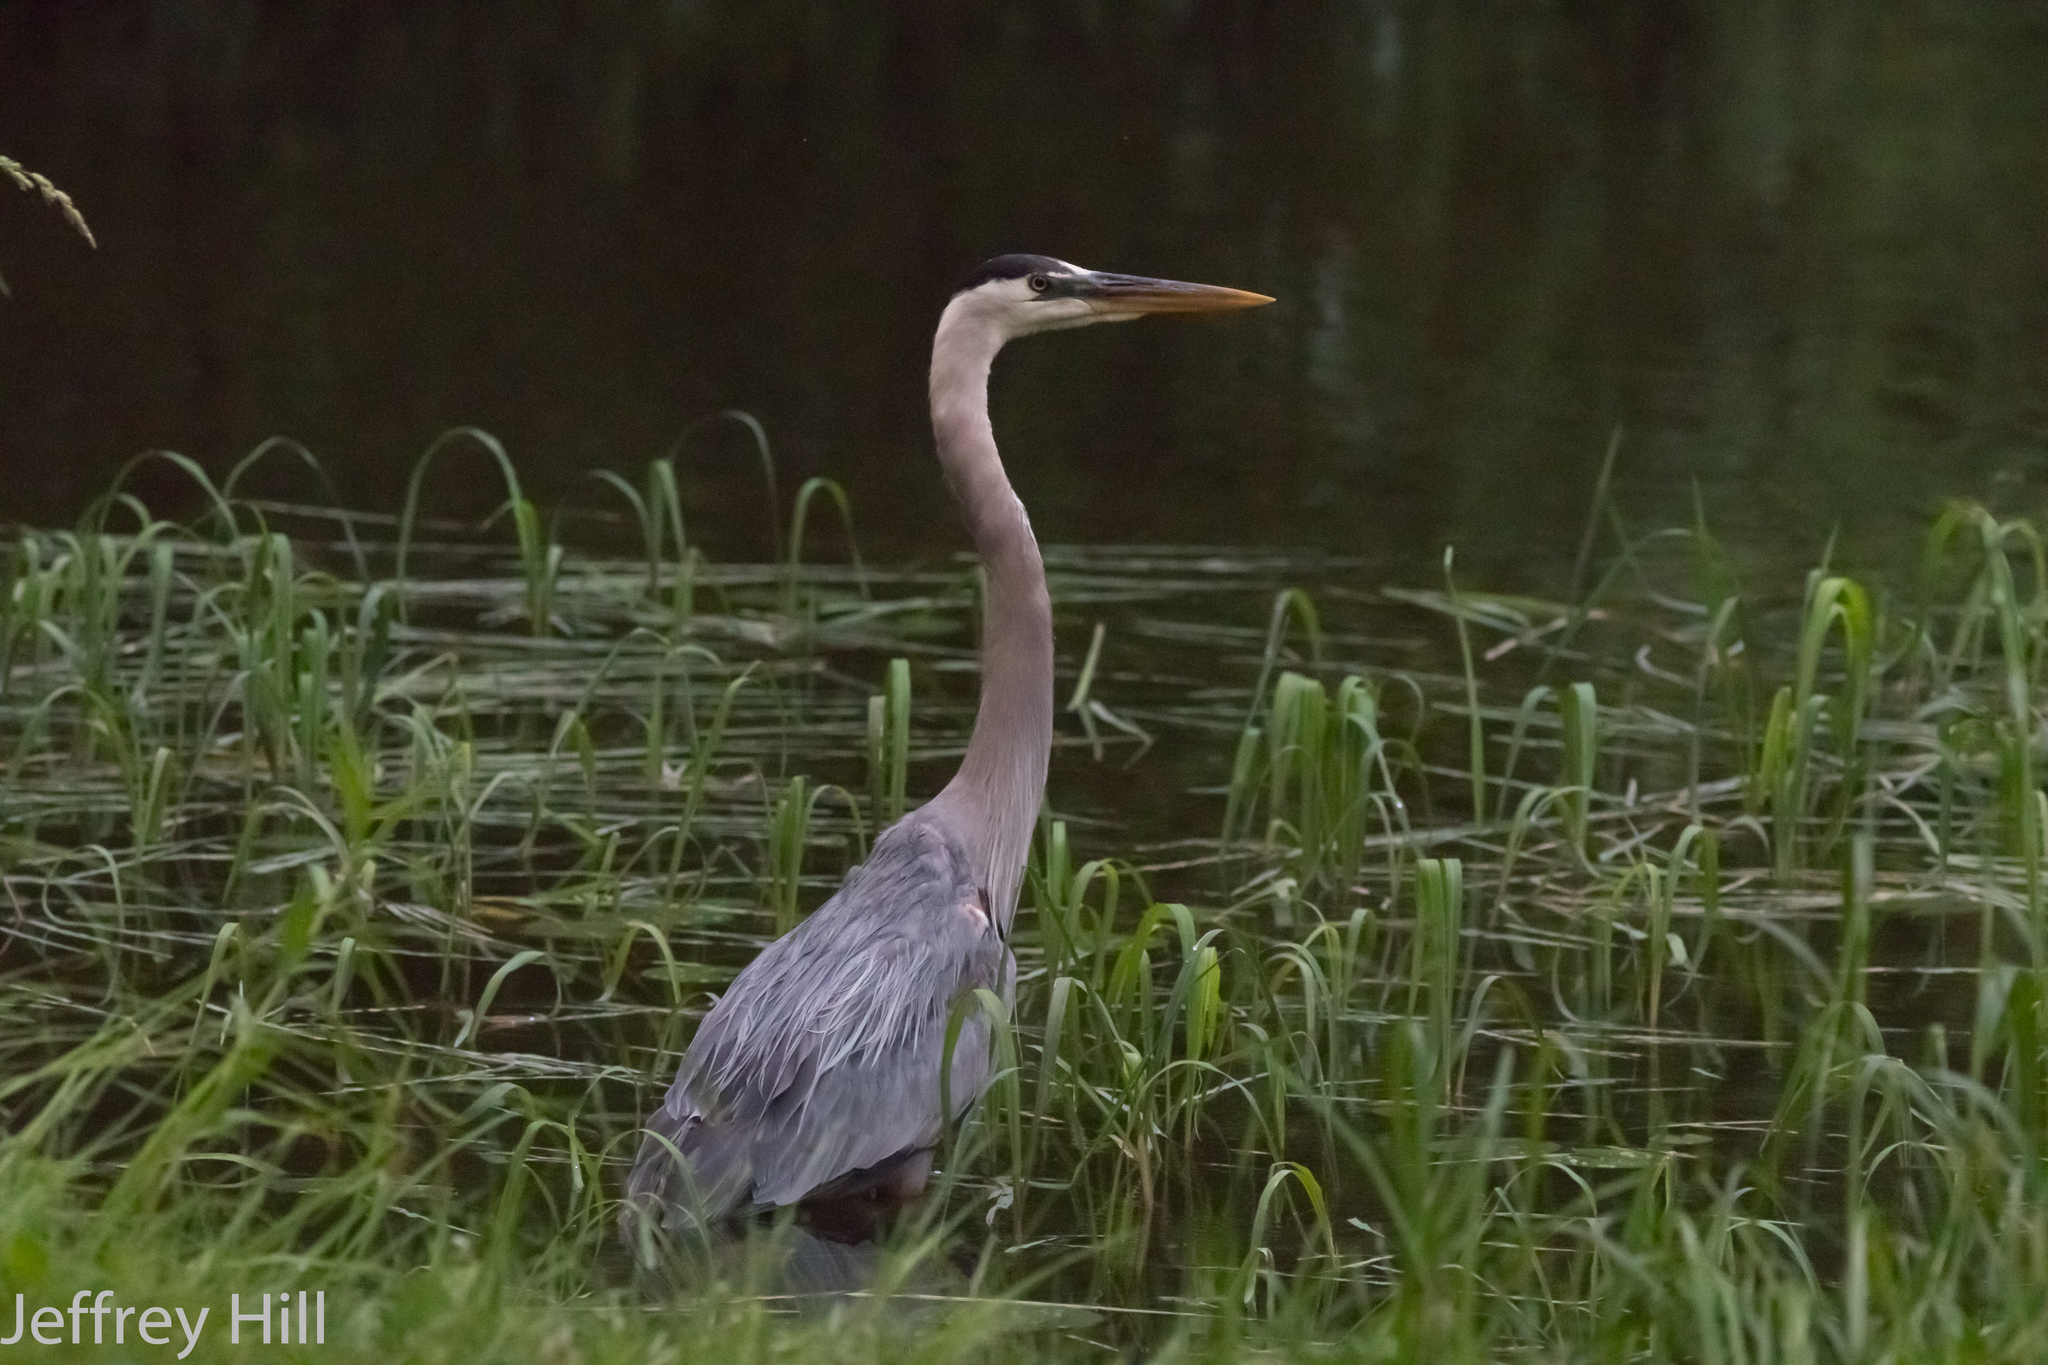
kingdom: Animalia
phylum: Chordata
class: Aves
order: Pelecaniformes
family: Ardeidae
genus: Ardea
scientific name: Ardea herodias
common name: Great blue heron
